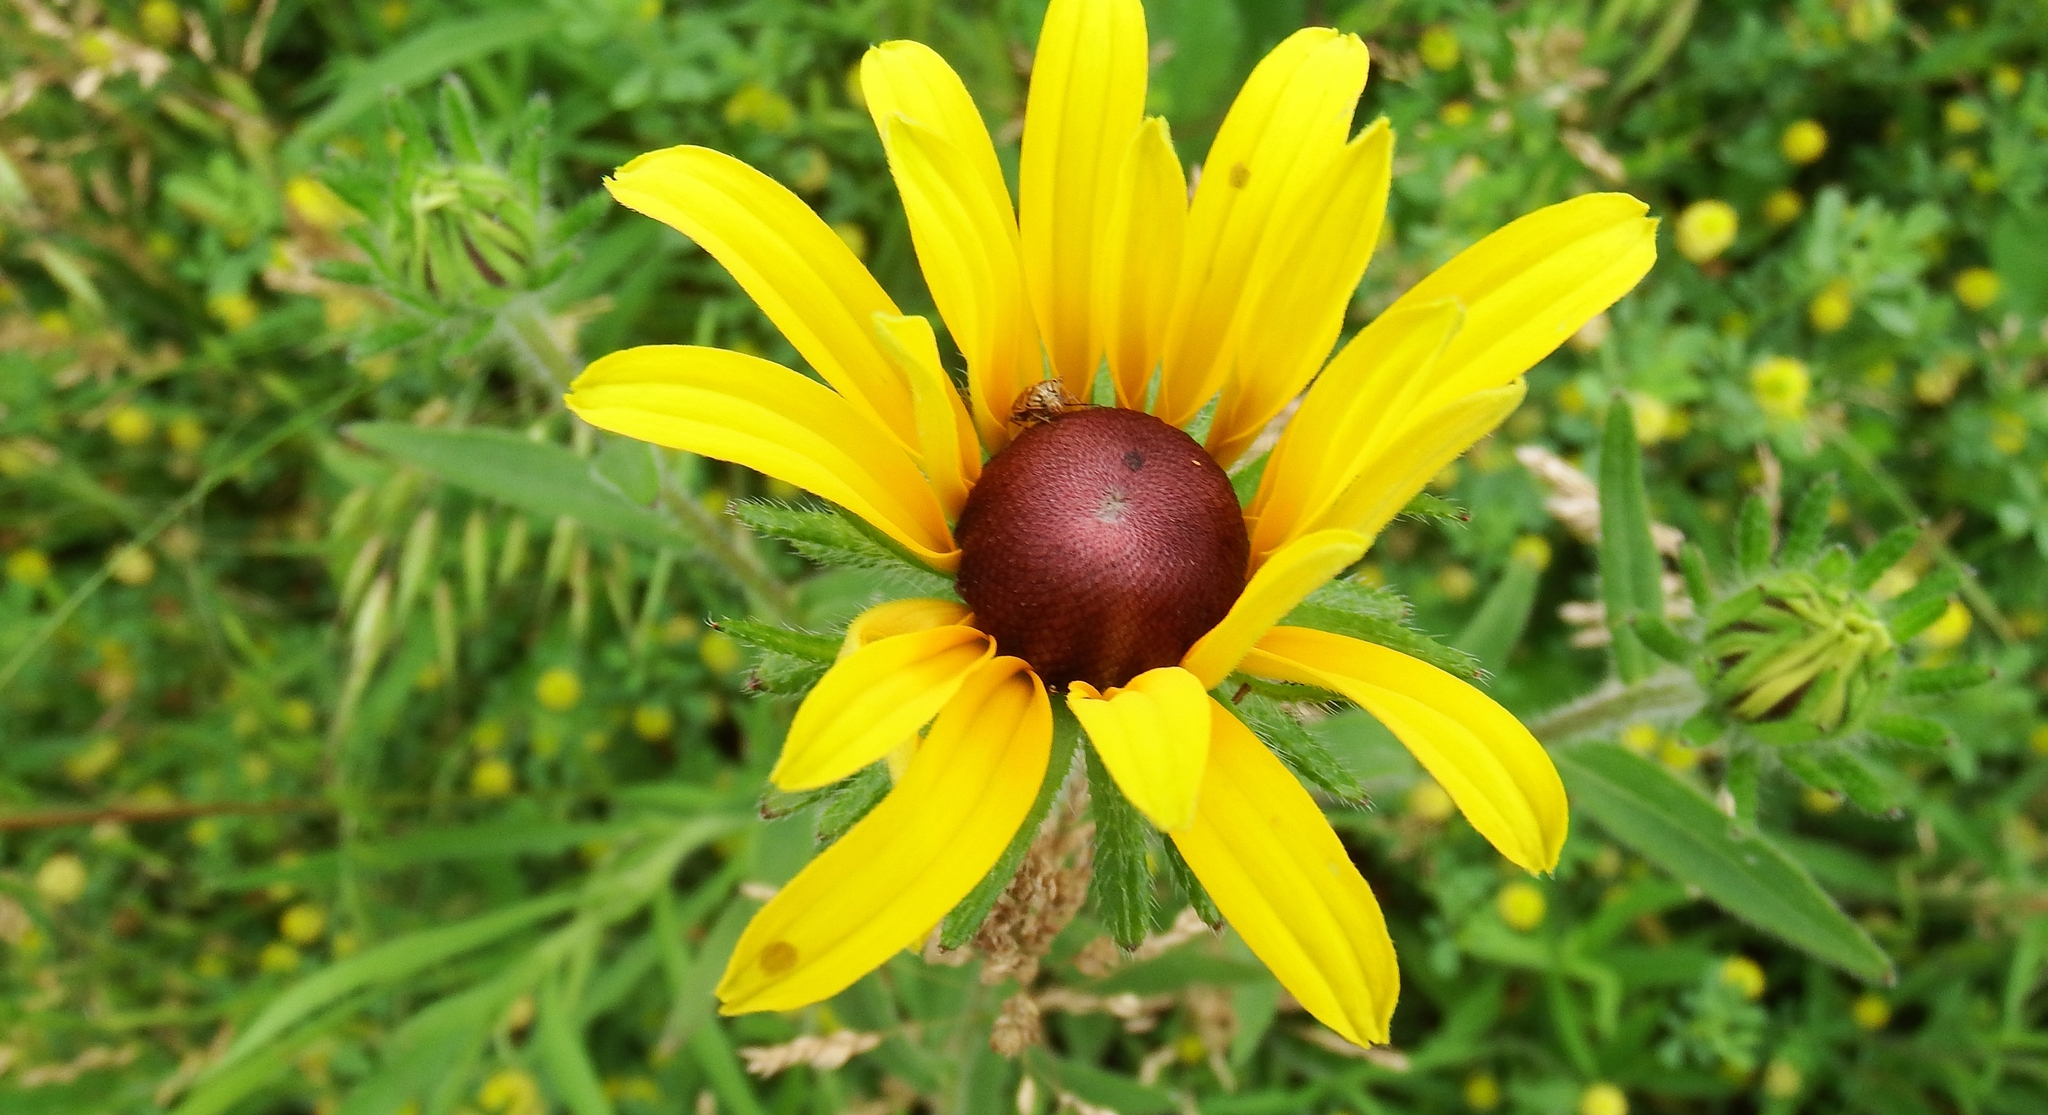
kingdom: Plantae
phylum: Tracheophyta
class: Magnoliopsida
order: Asterales
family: Asteraceae
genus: Rudbeckia
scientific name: Rudbeckia hirta
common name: Black-eyed-susan
